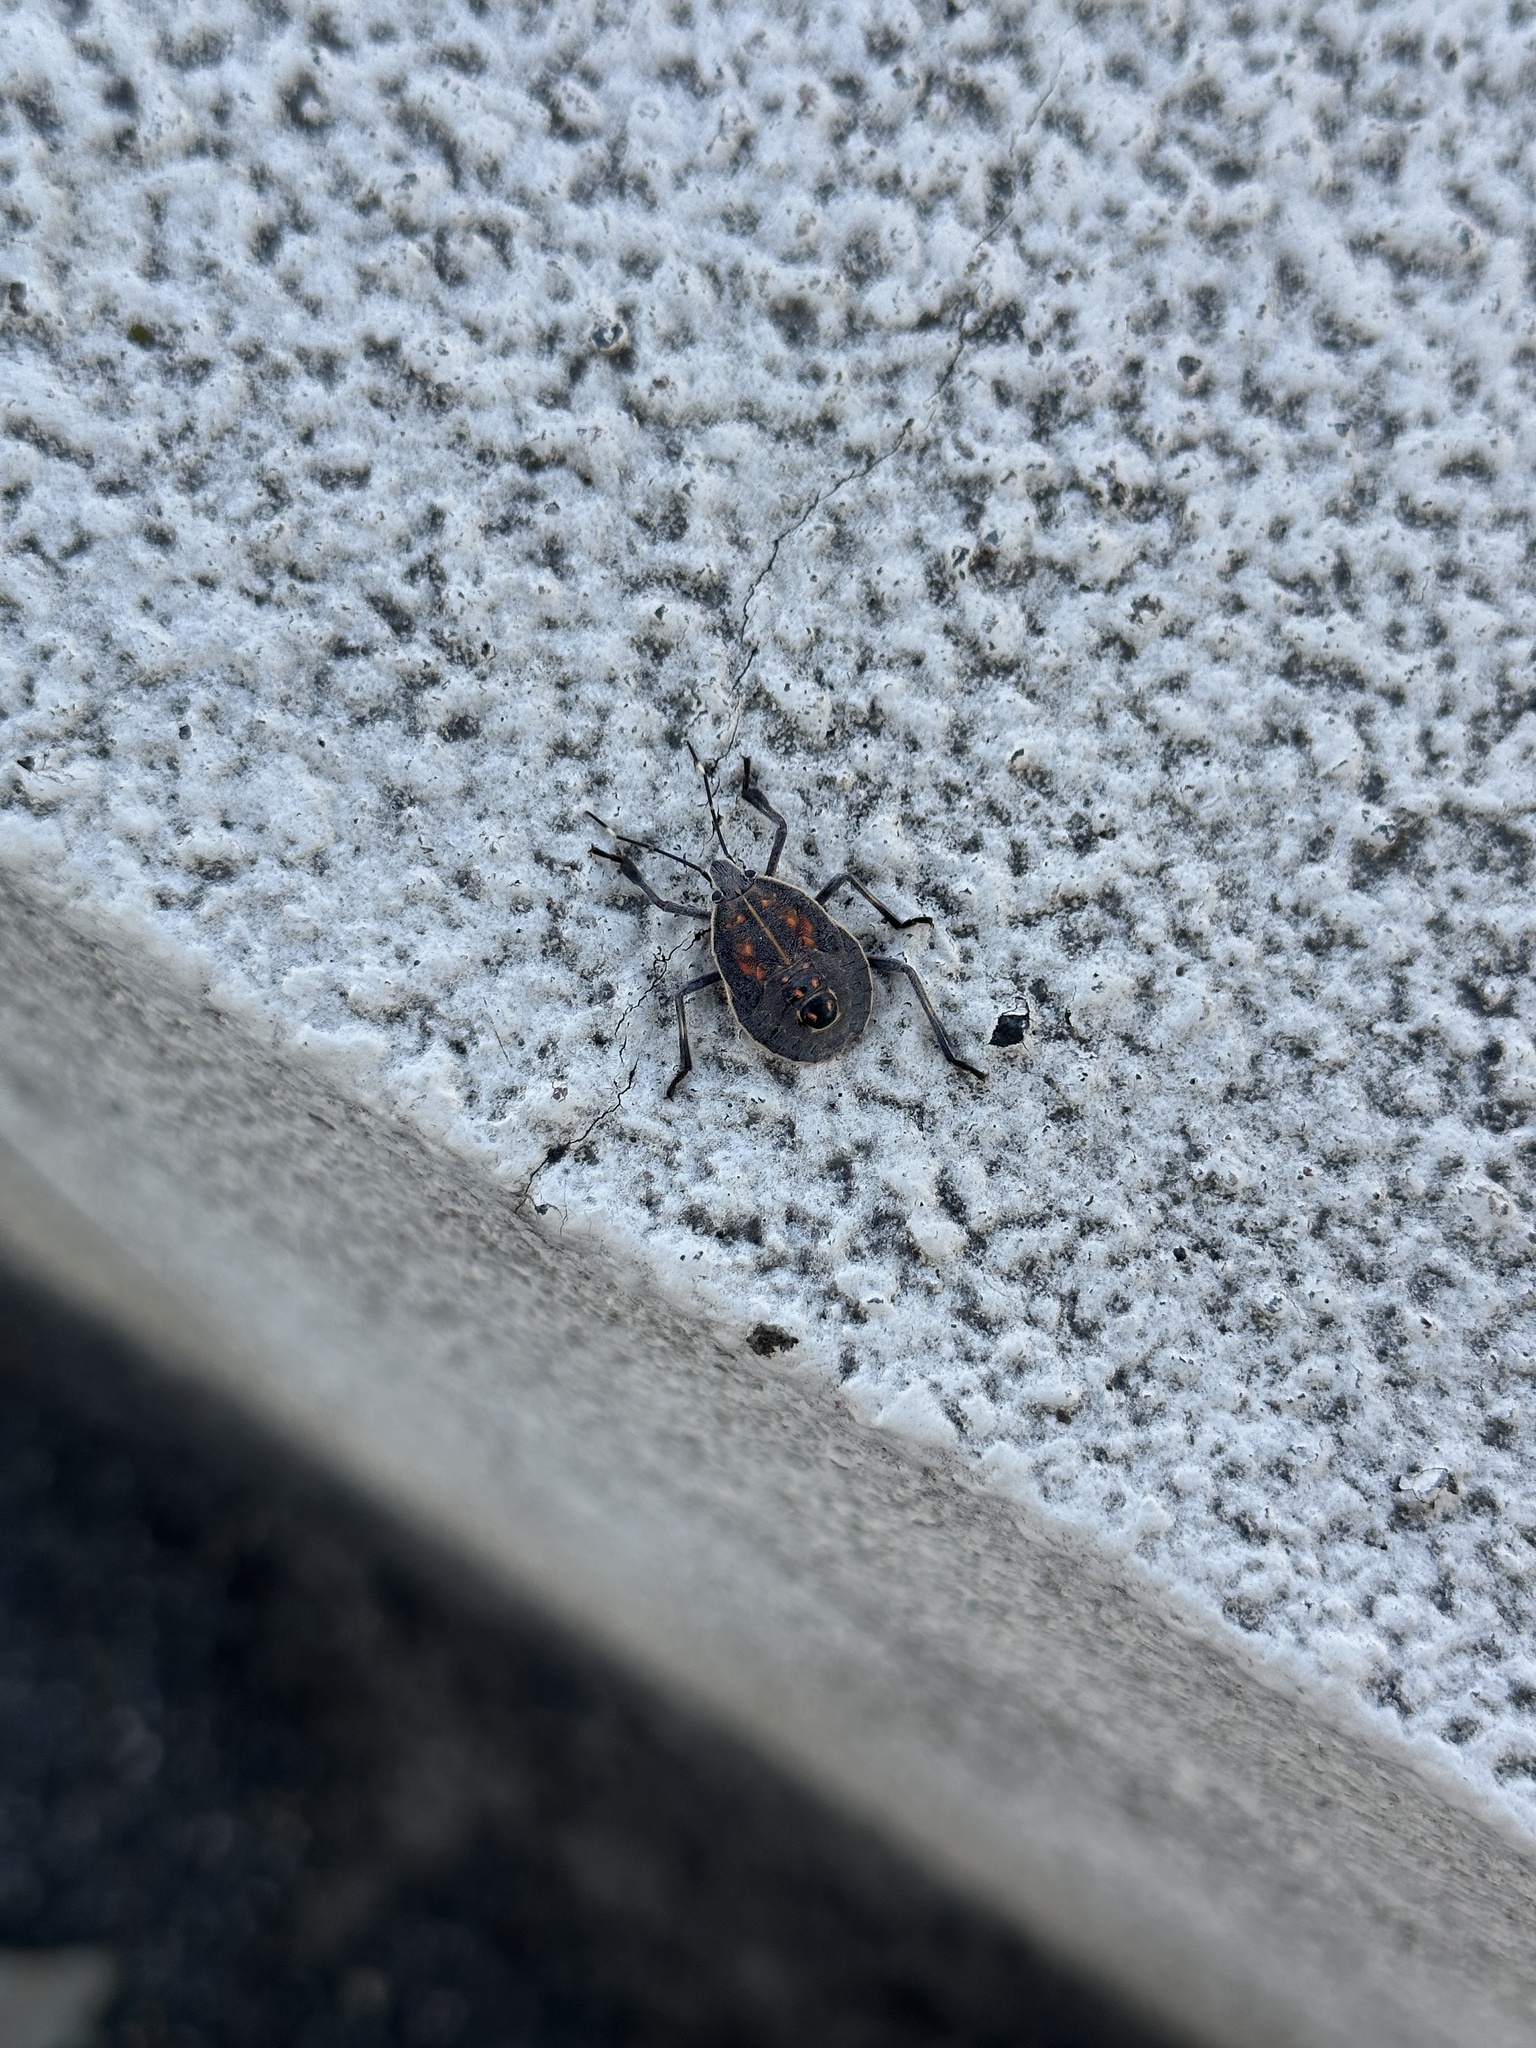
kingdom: Animalia
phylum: Arthropoda
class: Insecta
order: Hemiptera
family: Pentatomidae
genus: Erthesina
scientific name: Erthesina fullo
